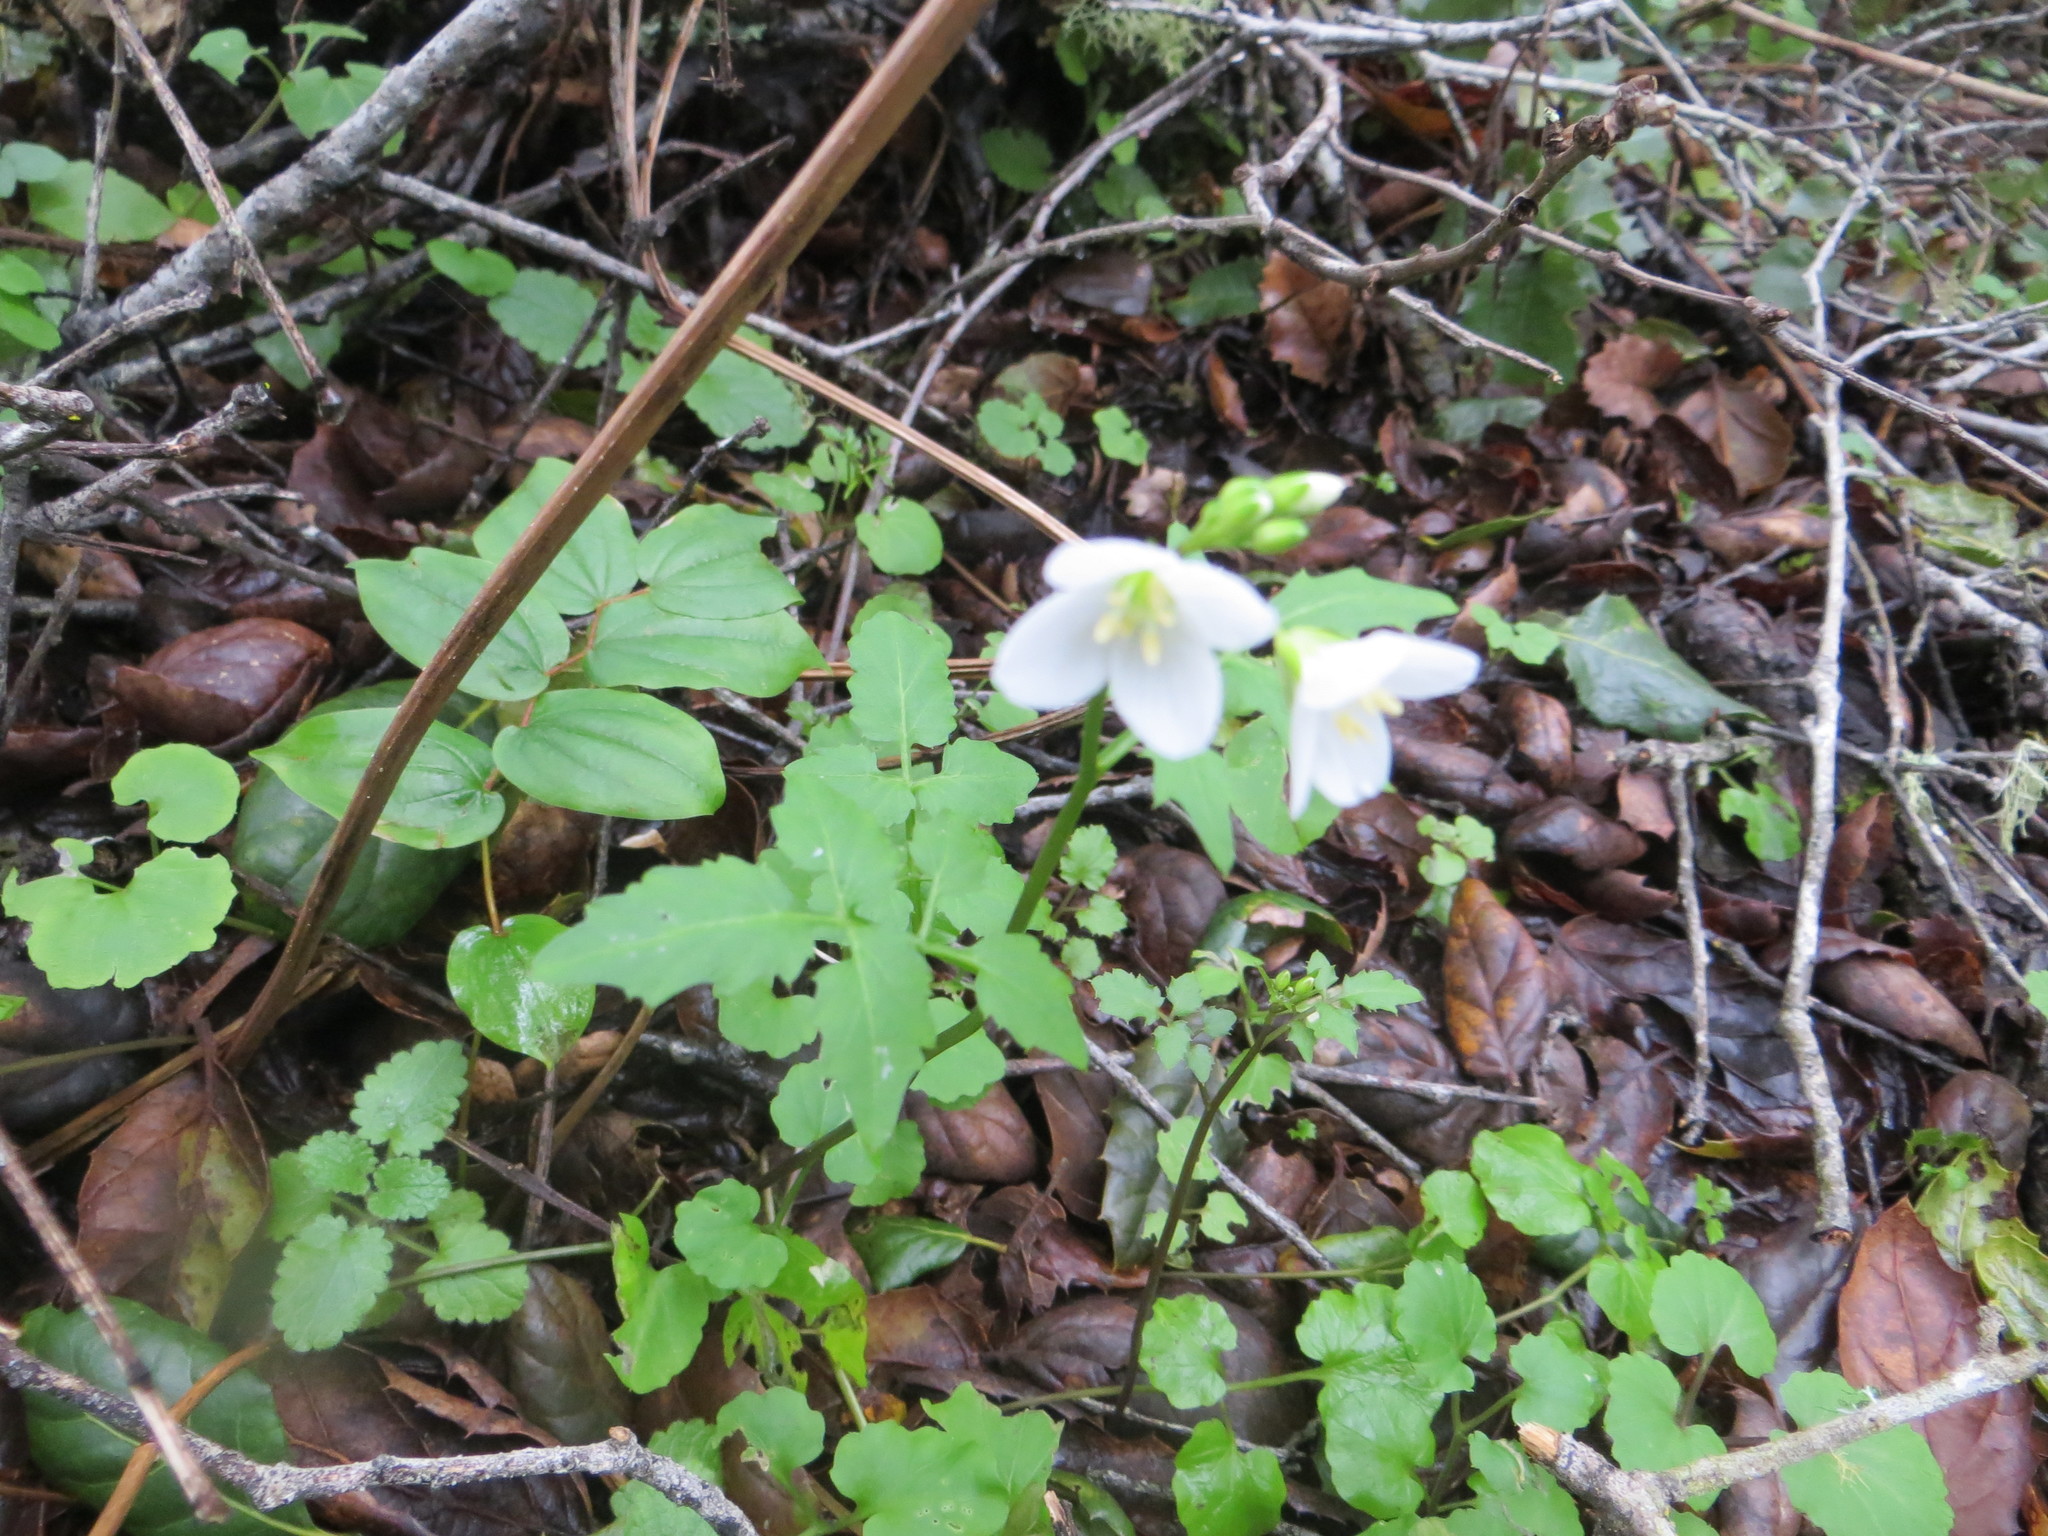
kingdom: Plantae
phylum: Tracheophyta
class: Magnoliopsida
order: Brassicales
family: Brassicaceae
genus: Cardamine
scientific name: Cardamine californica
